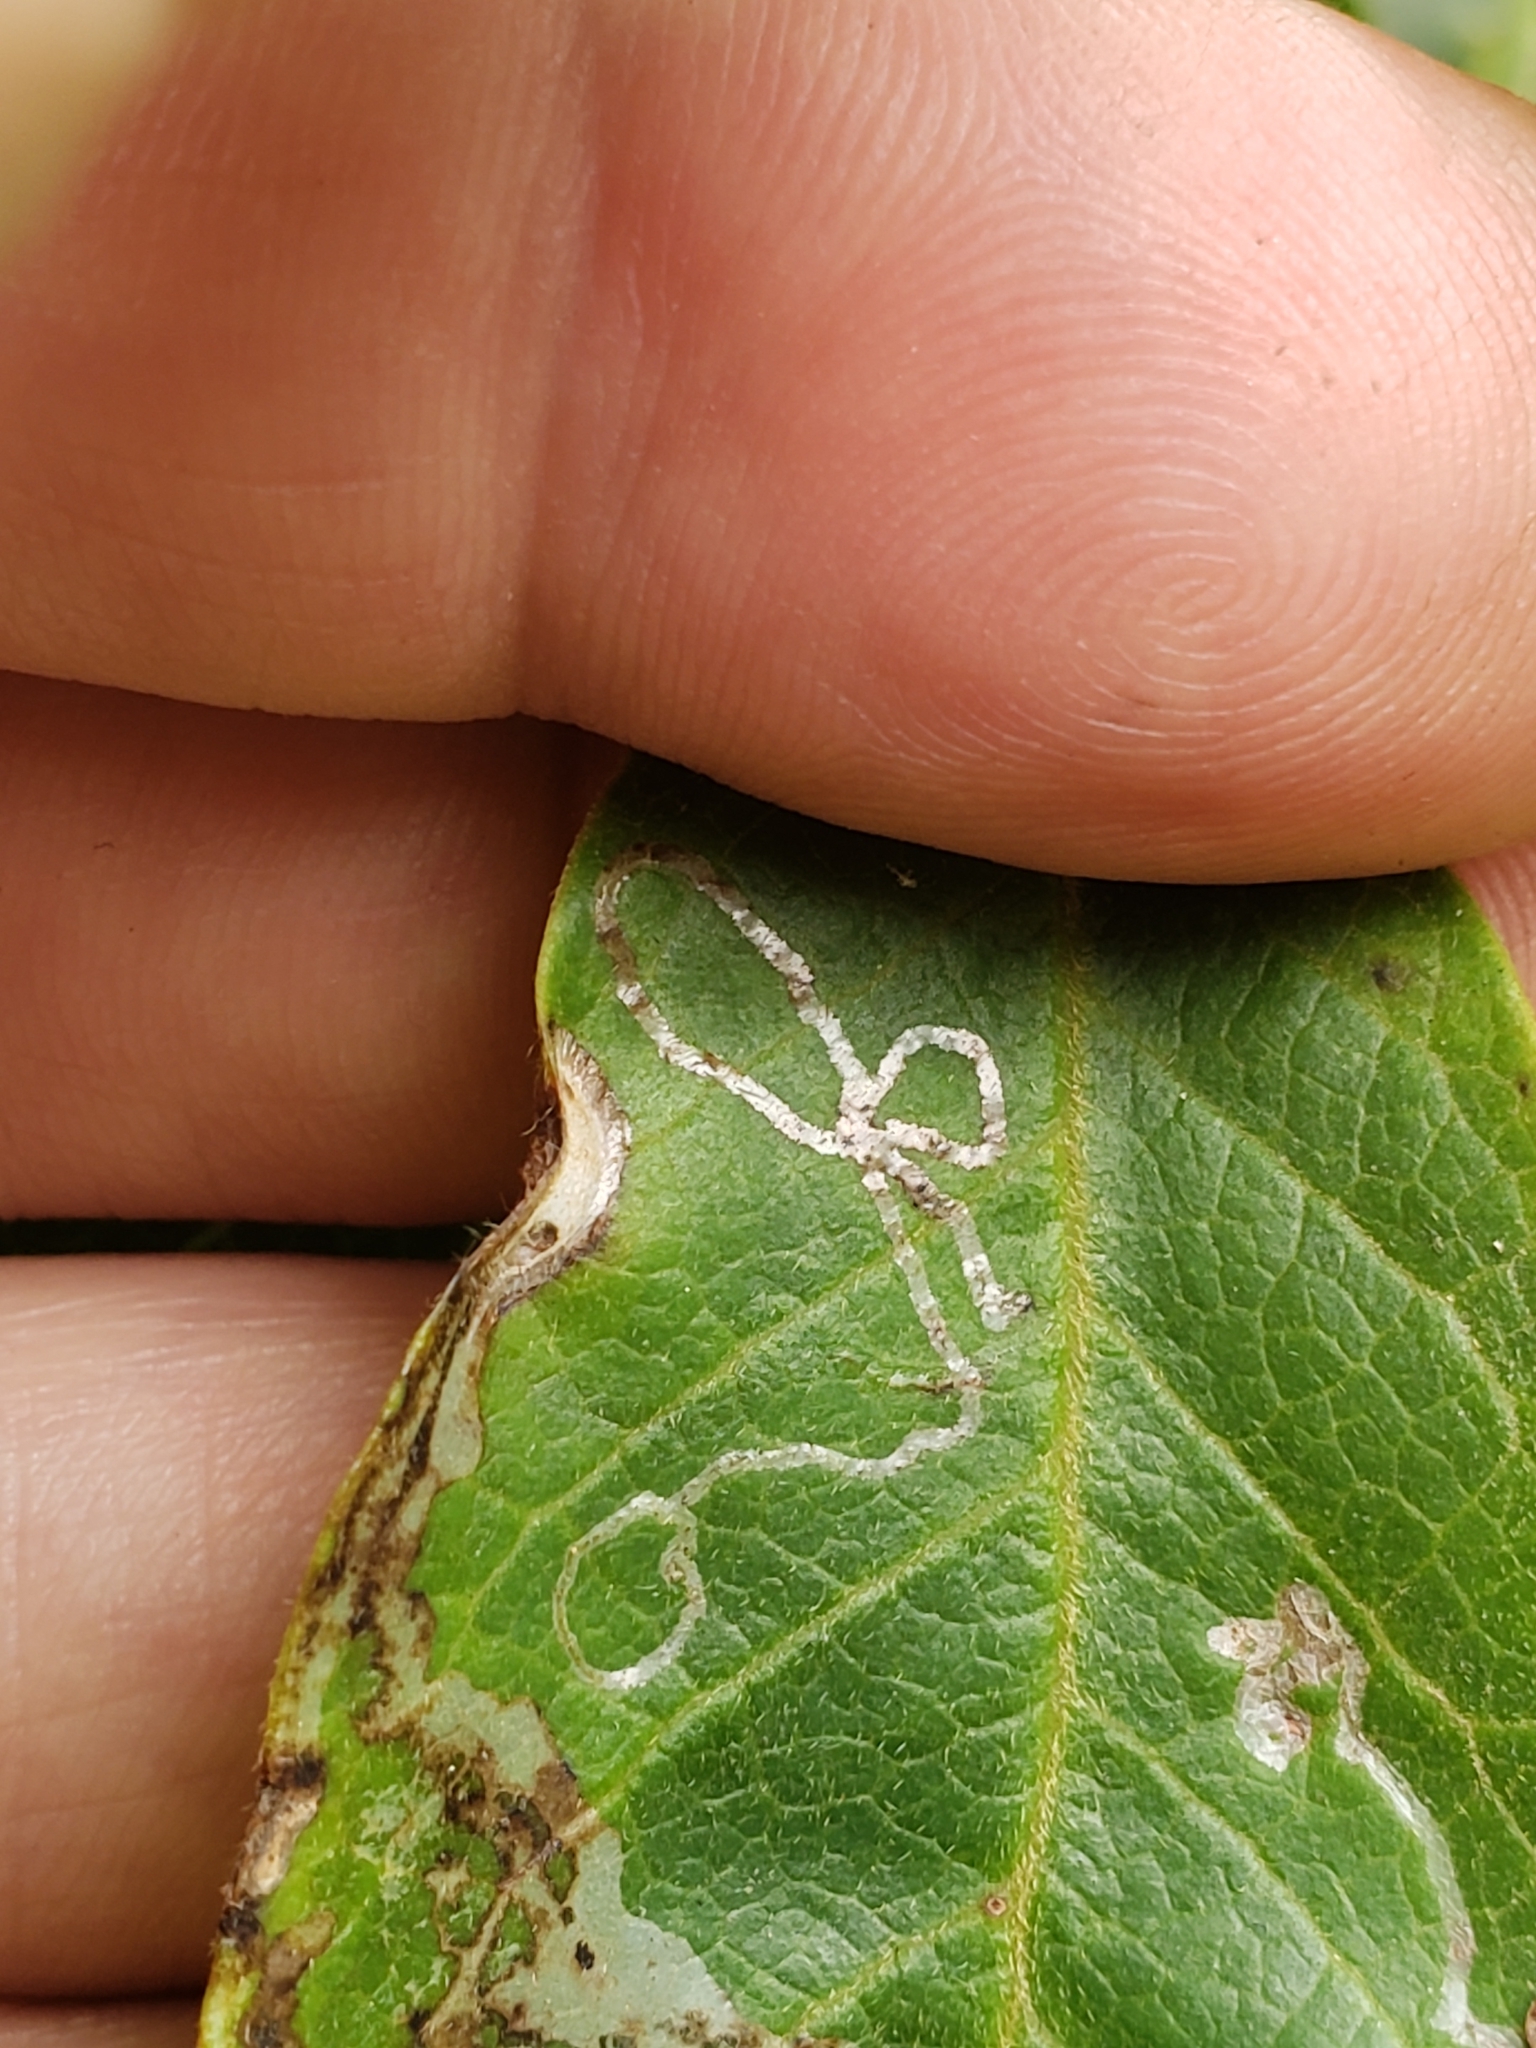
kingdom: Animalia
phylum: Arthropoda
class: Insecta
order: Lepidoptera
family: Gracillariidae
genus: Phyllocnistis
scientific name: Phyllocnistis liriodendronella
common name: Tulip tree leaf miner
